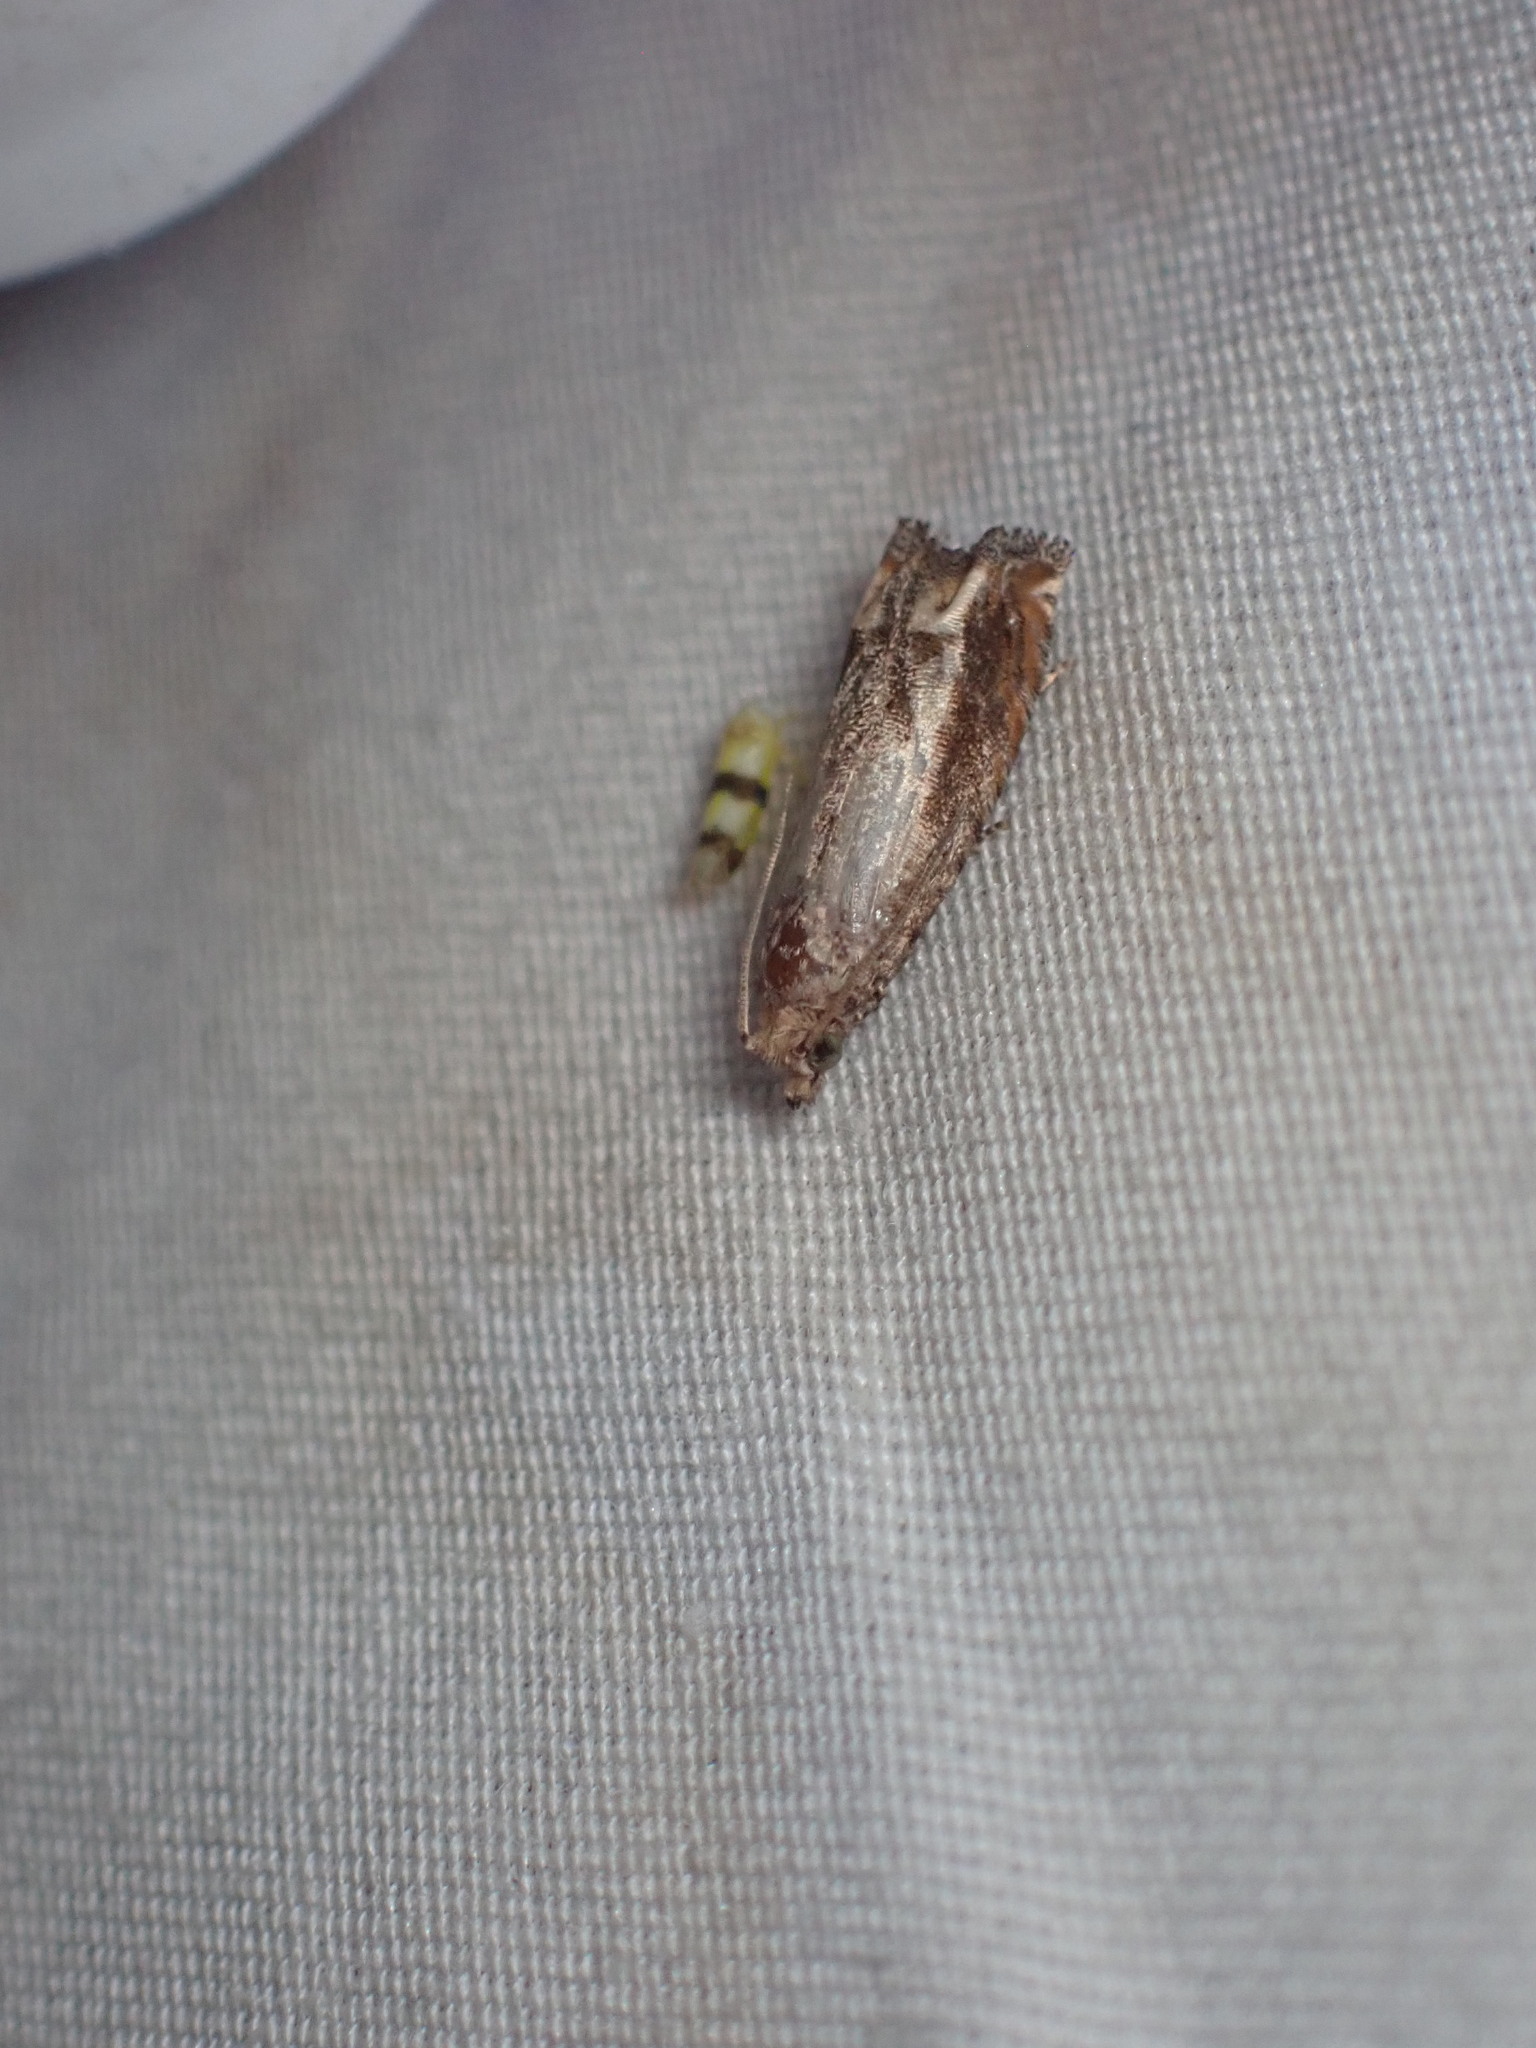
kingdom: Animalia
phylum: Arthropoda
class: Insecta
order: Lepidoptera
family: Tortricidae
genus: Epiblema
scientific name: Epiblema abruptana
